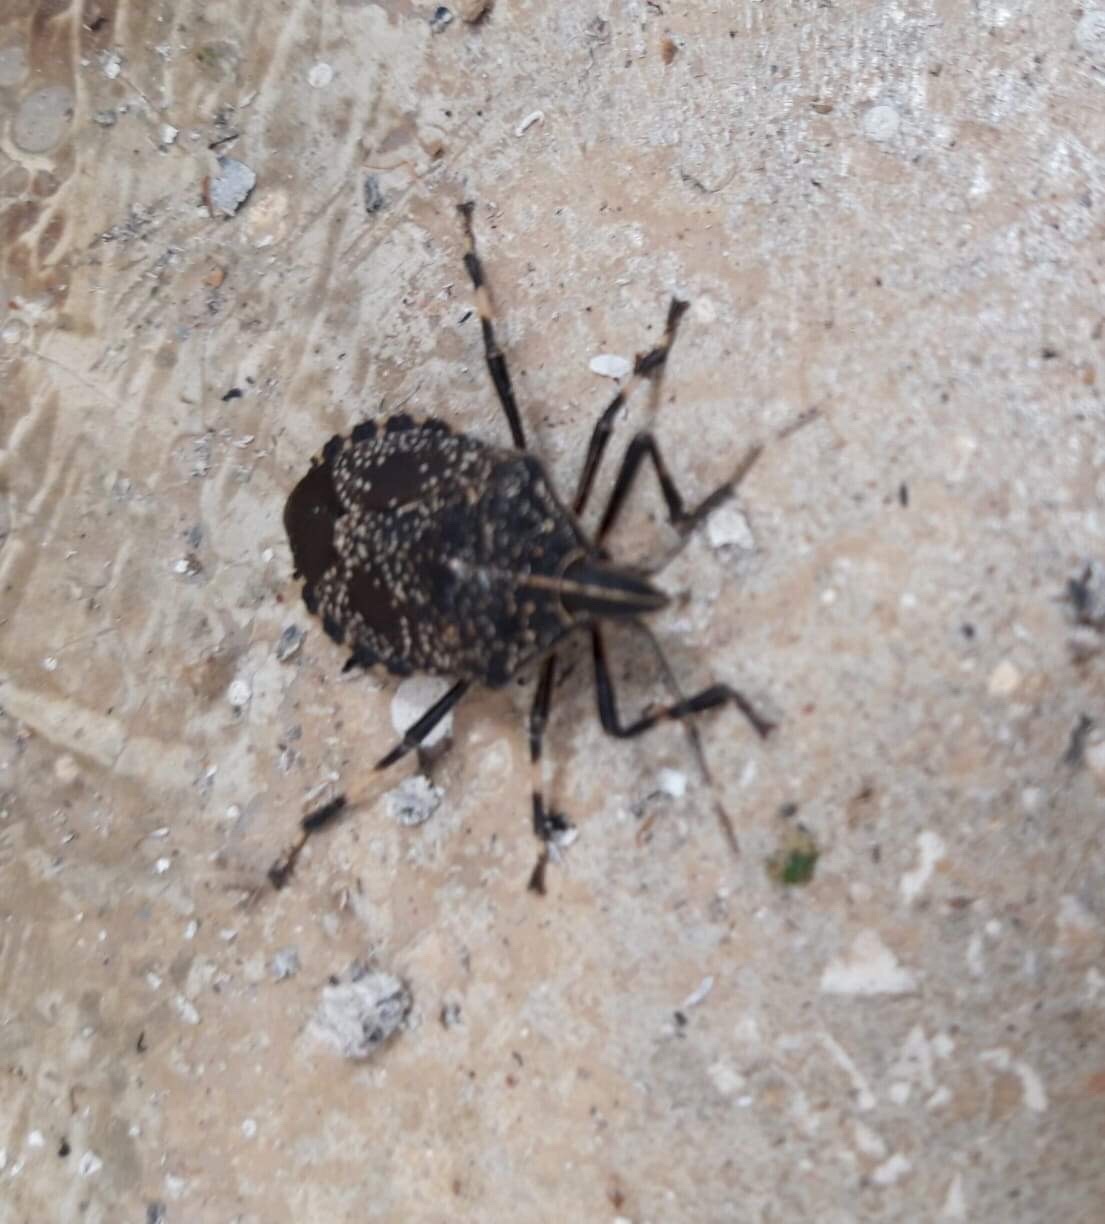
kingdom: Animalia
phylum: Arthropoda
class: Insecta
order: Hemiptera
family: Pentatomidae
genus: Erthesina
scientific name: Erthesina fullo
